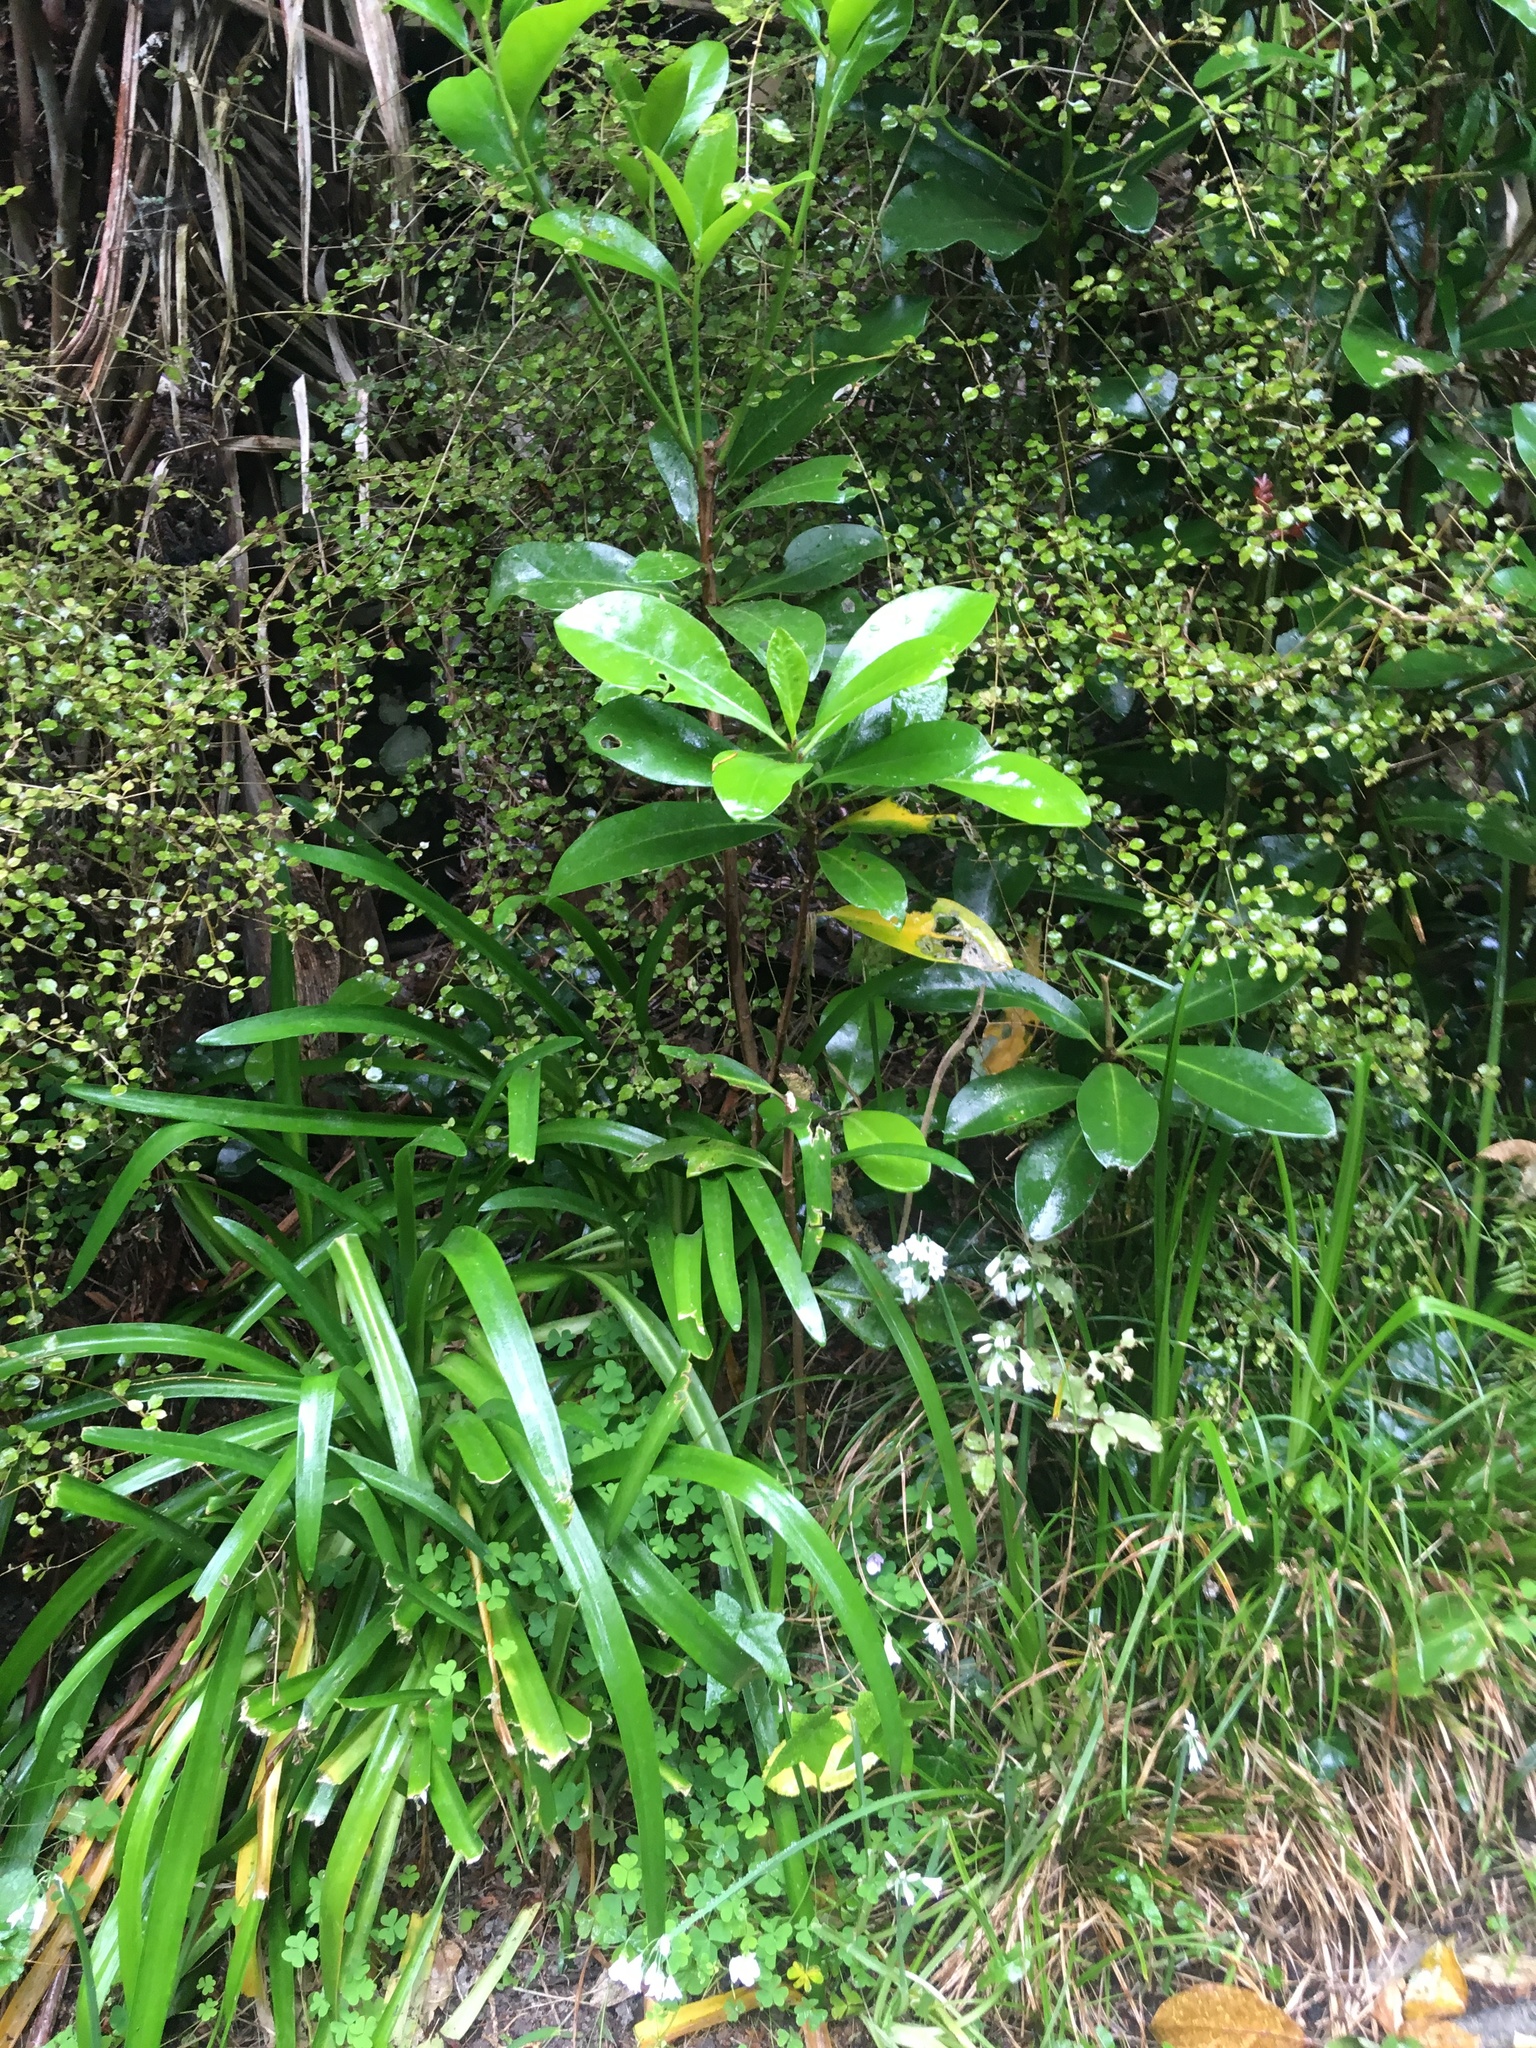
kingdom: Plantae
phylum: Tracheophyta
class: Magnoliopsida
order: Cucurbitales
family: Corynocarpaceae
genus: Corynocarpus
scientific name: Corynocarpus laevigatus
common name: New zealand laurel
